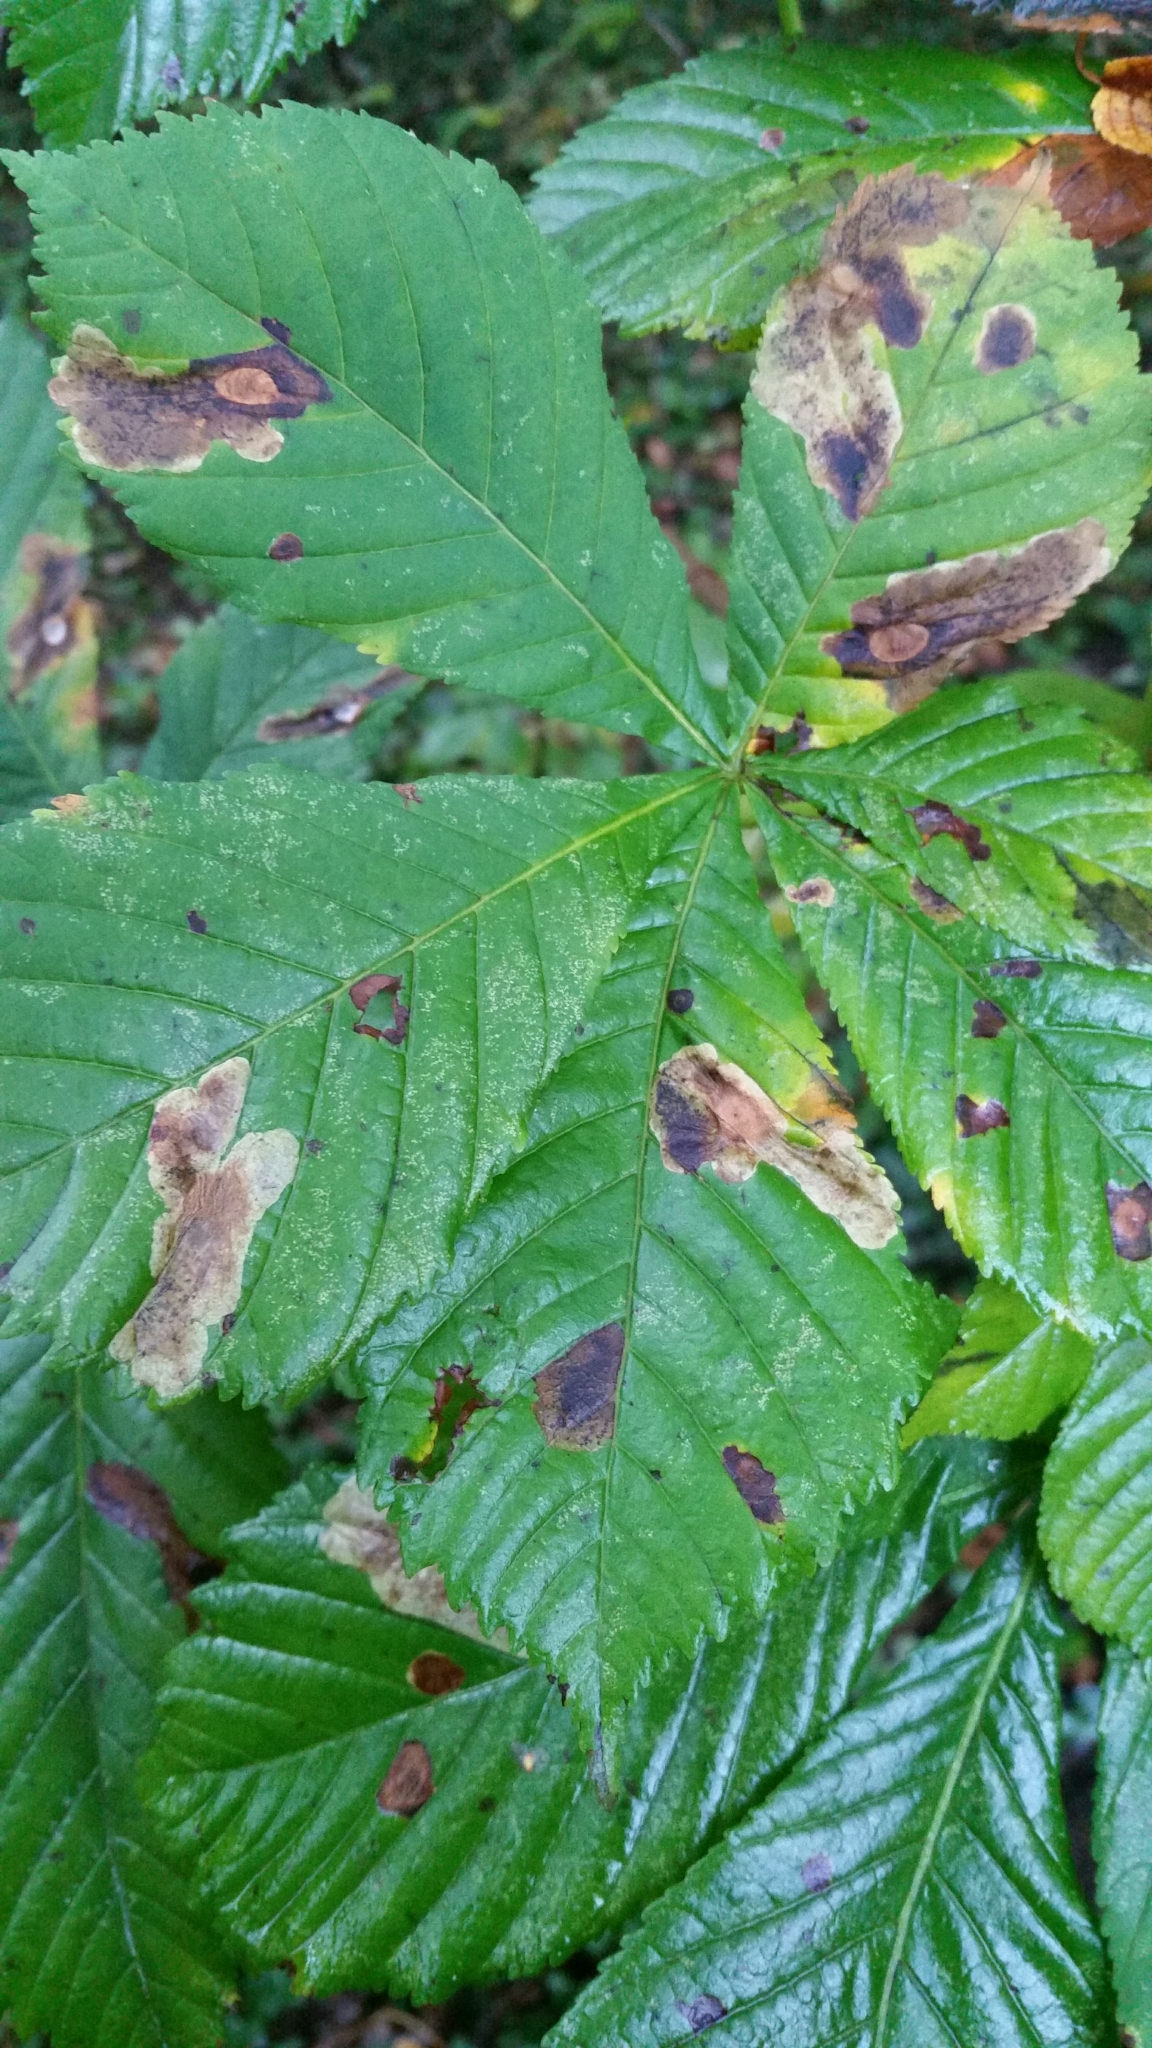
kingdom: Animalia
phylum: Arthropoda
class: Insecta
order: Lepidoptera
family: Gracillariidae
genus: Cameraria
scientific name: Cameraria ohridella
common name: Horse-chestnut leaf-miner
